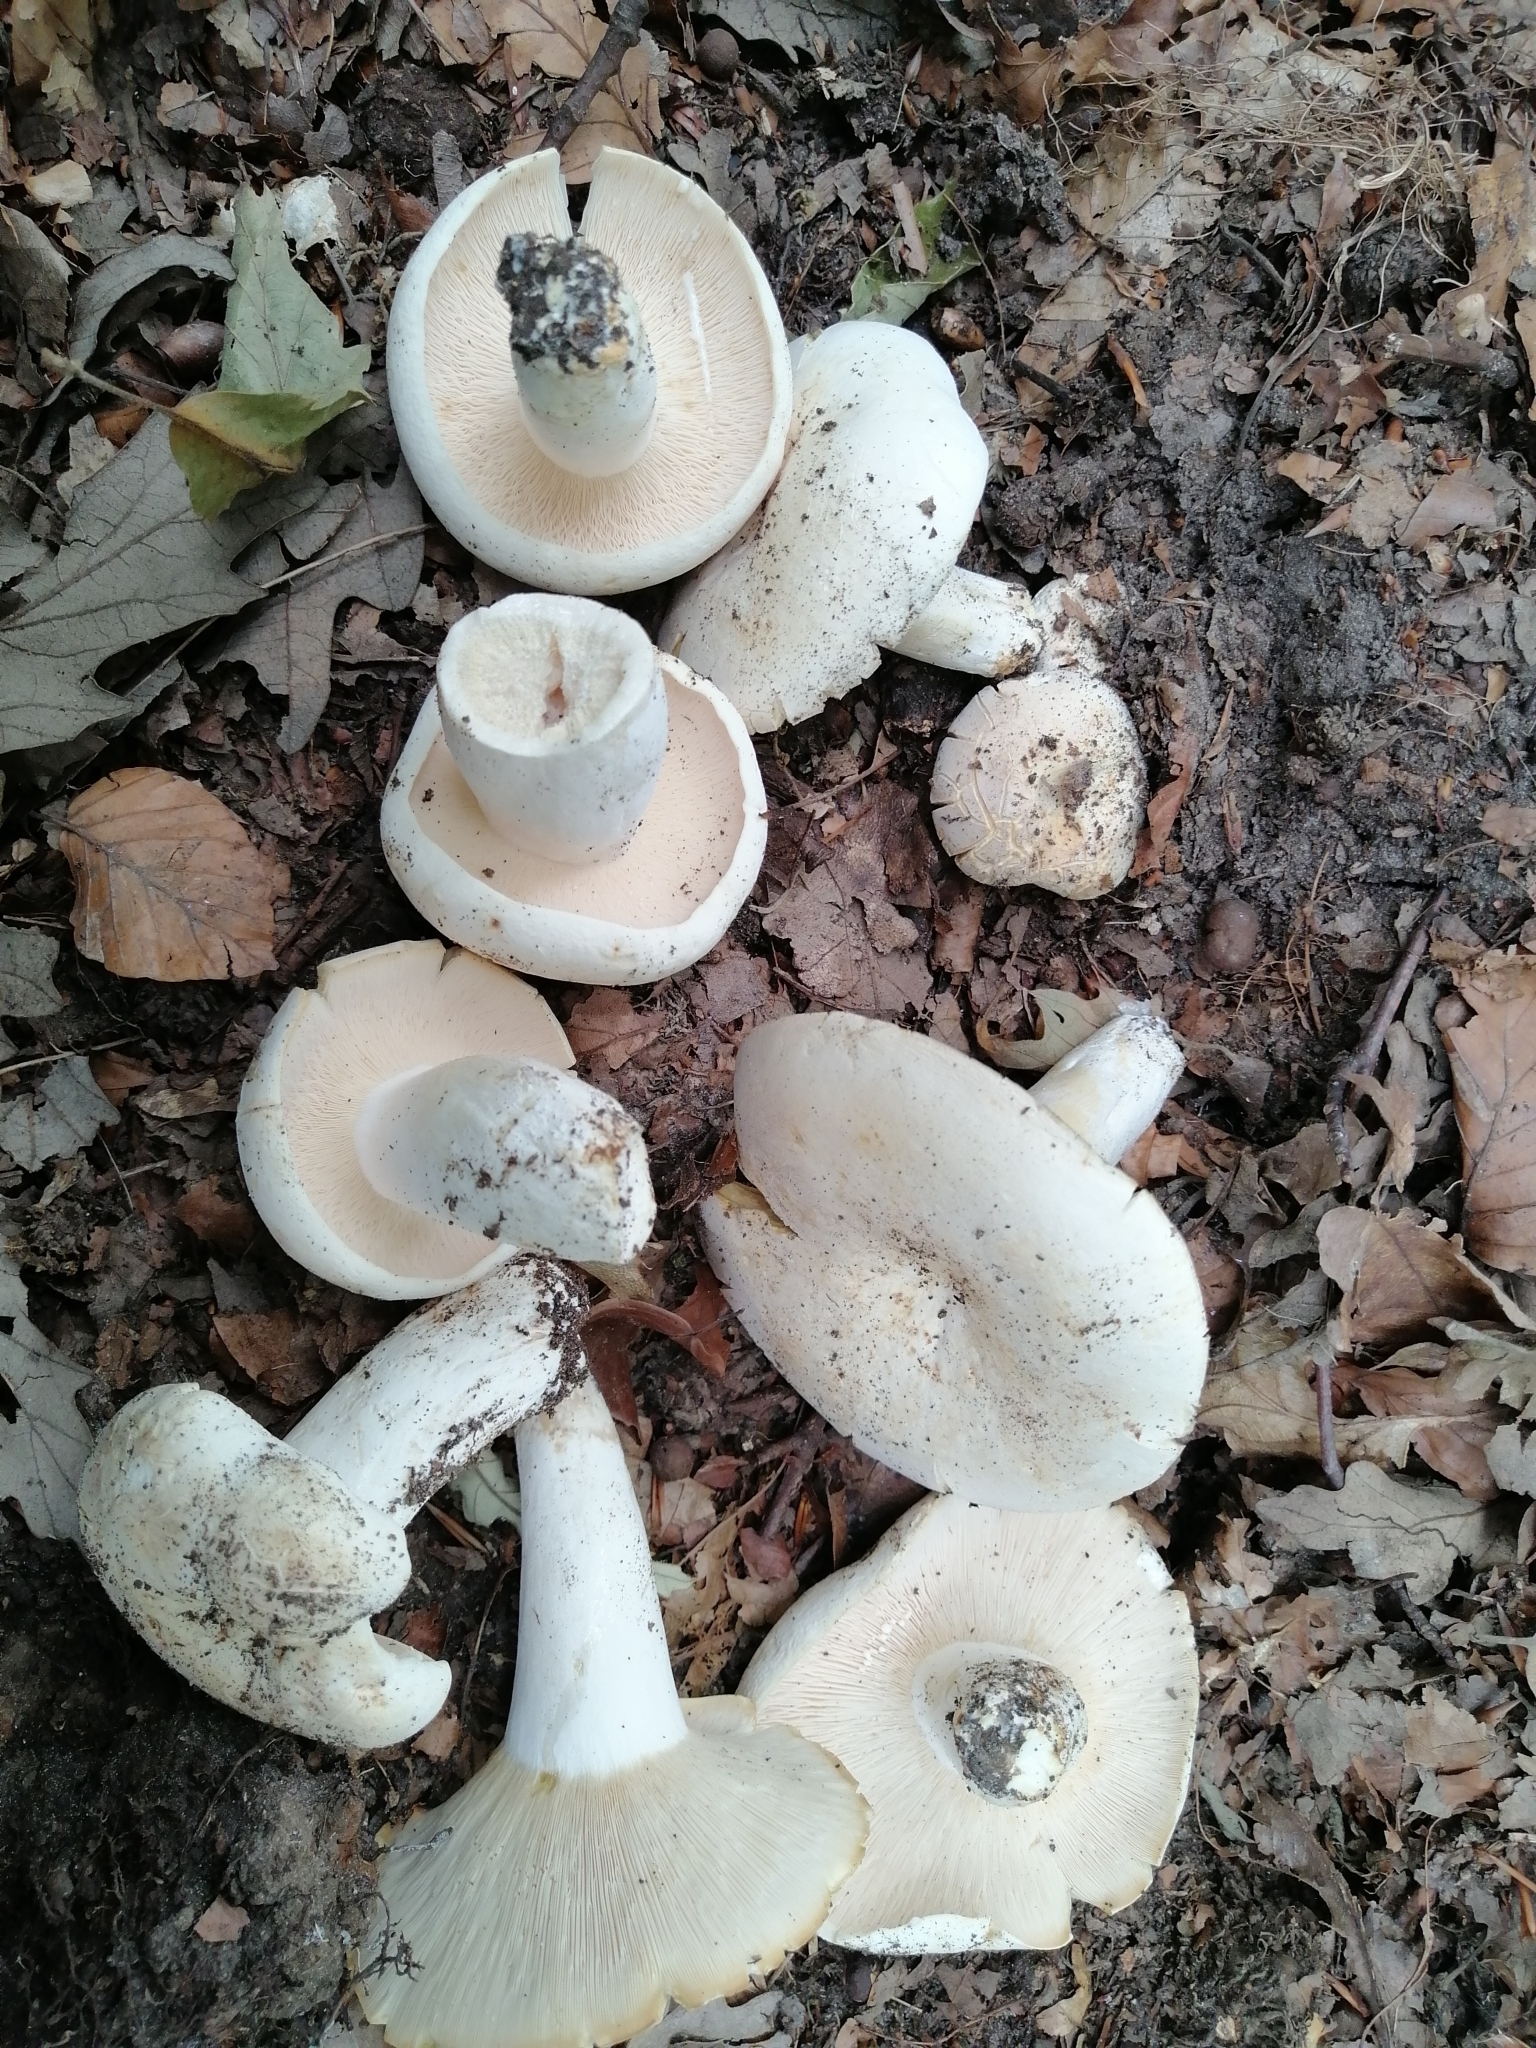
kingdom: Fungi
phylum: Basidiomycota
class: Agaricomycetes
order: Russulales
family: Russulaceae
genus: Lactifluus
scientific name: Lactifluus piperatus
